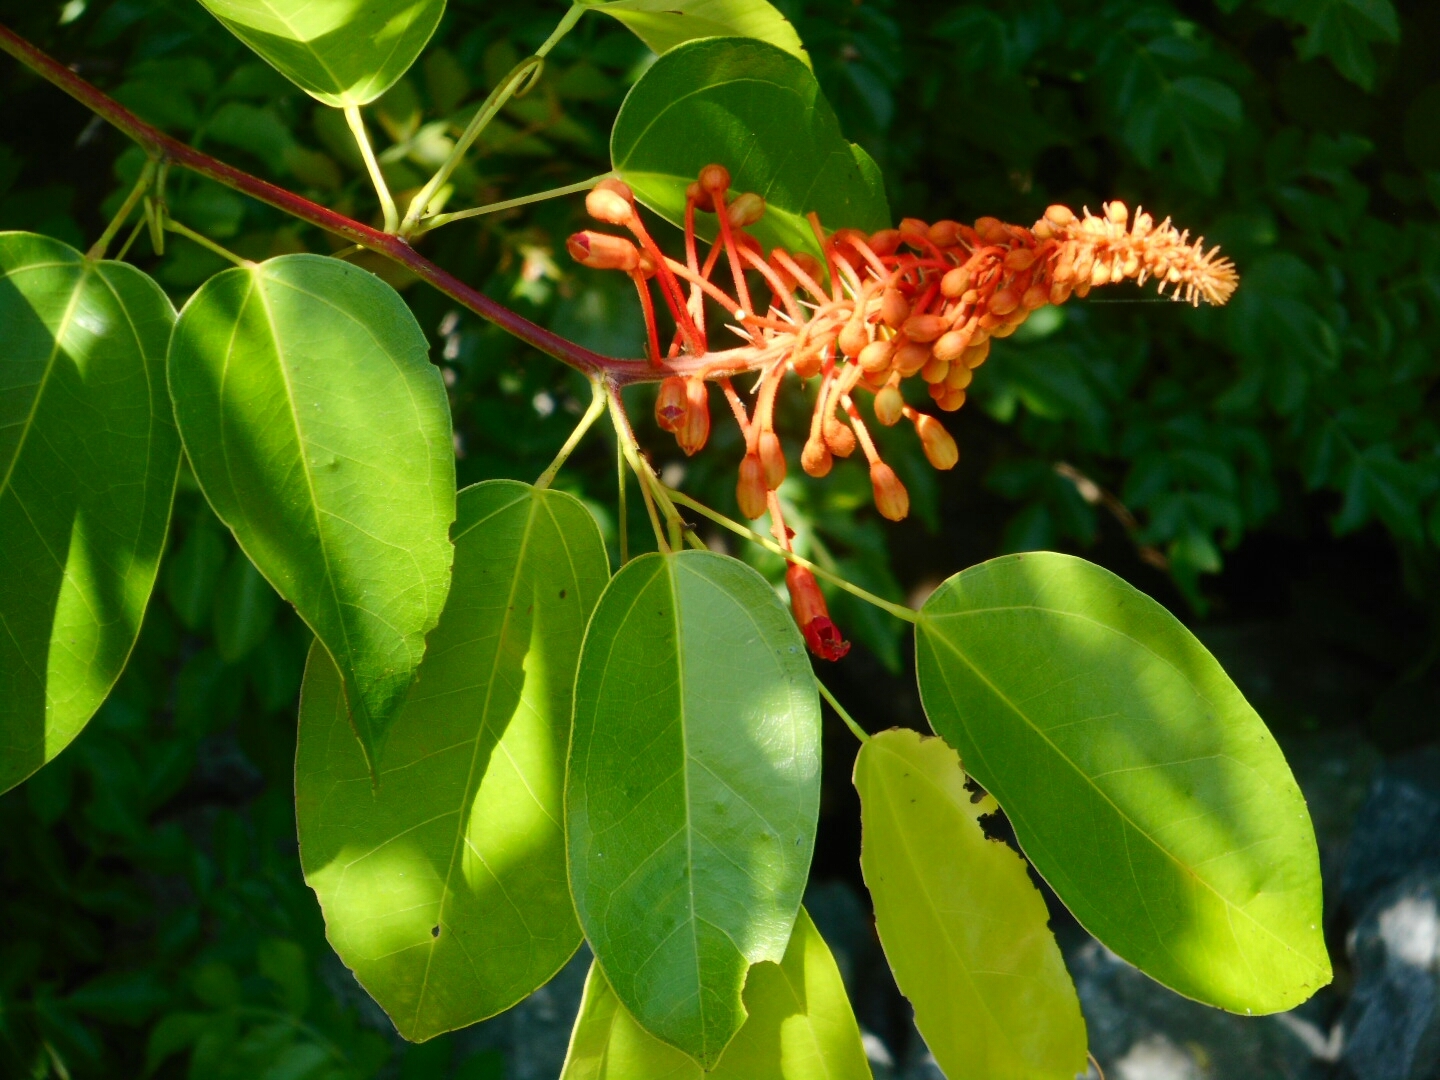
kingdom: Plantae
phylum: Tracheophyta
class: Magnoliopsida
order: Fabales
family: Fabaceae
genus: Phanera
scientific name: Phanera cardinalis
